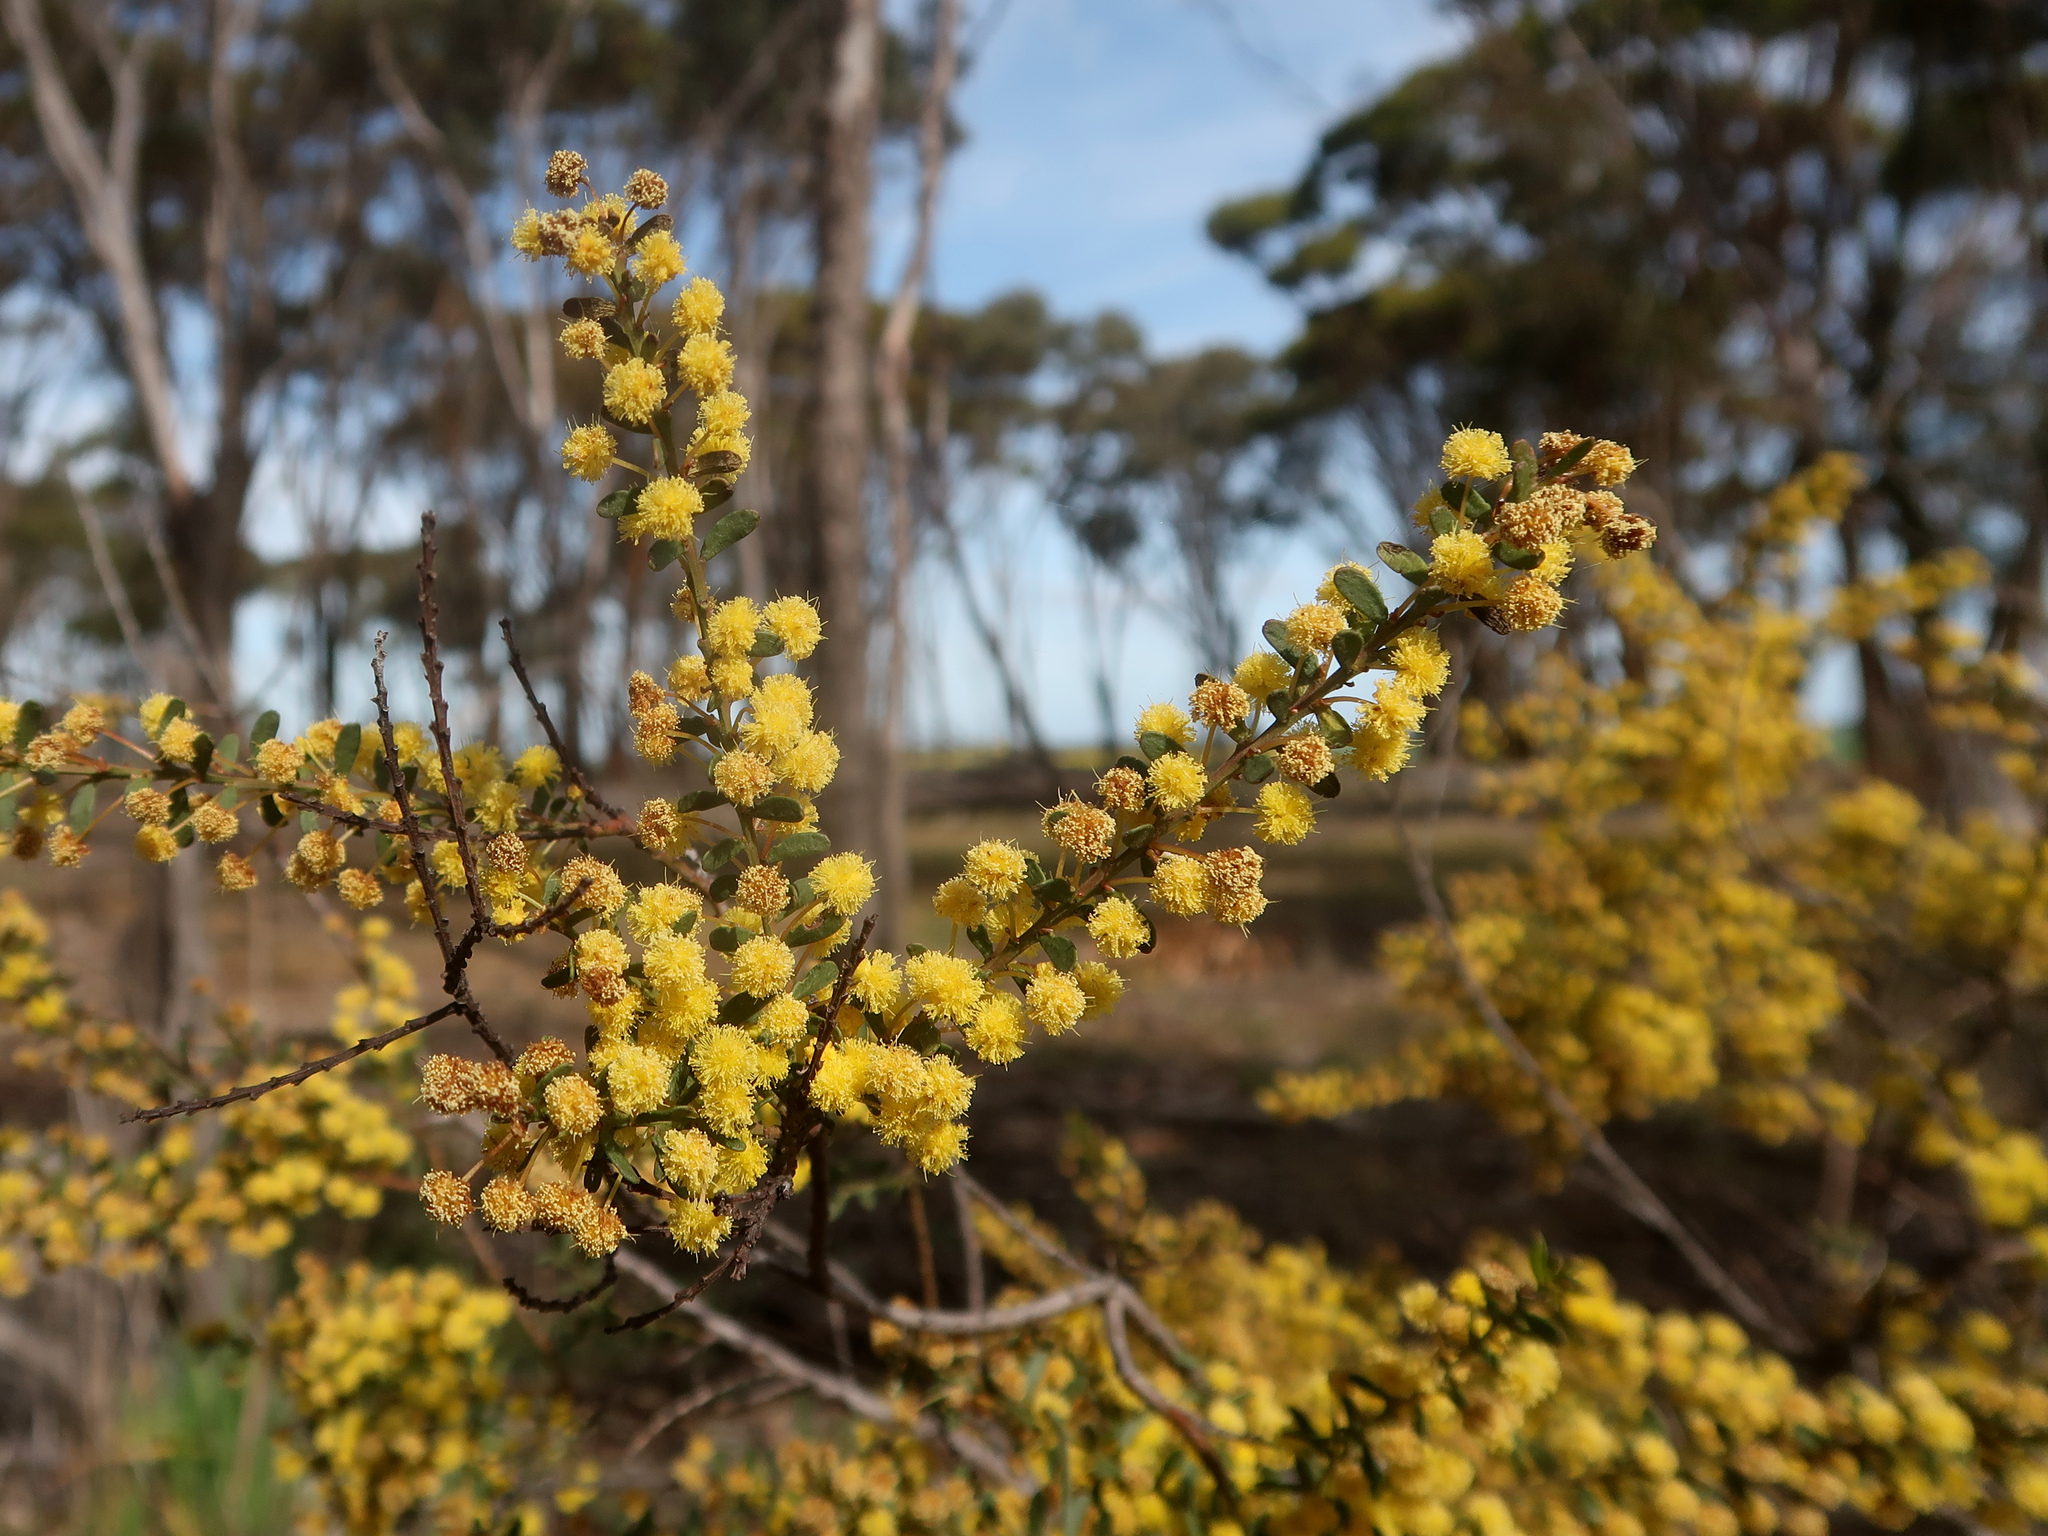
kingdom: Plantae
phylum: Tracheophyta
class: Magnoliopsida
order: Fabales
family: Fabaceae
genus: Acacia
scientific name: Acacia acinacea
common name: Gold-dust acacia
